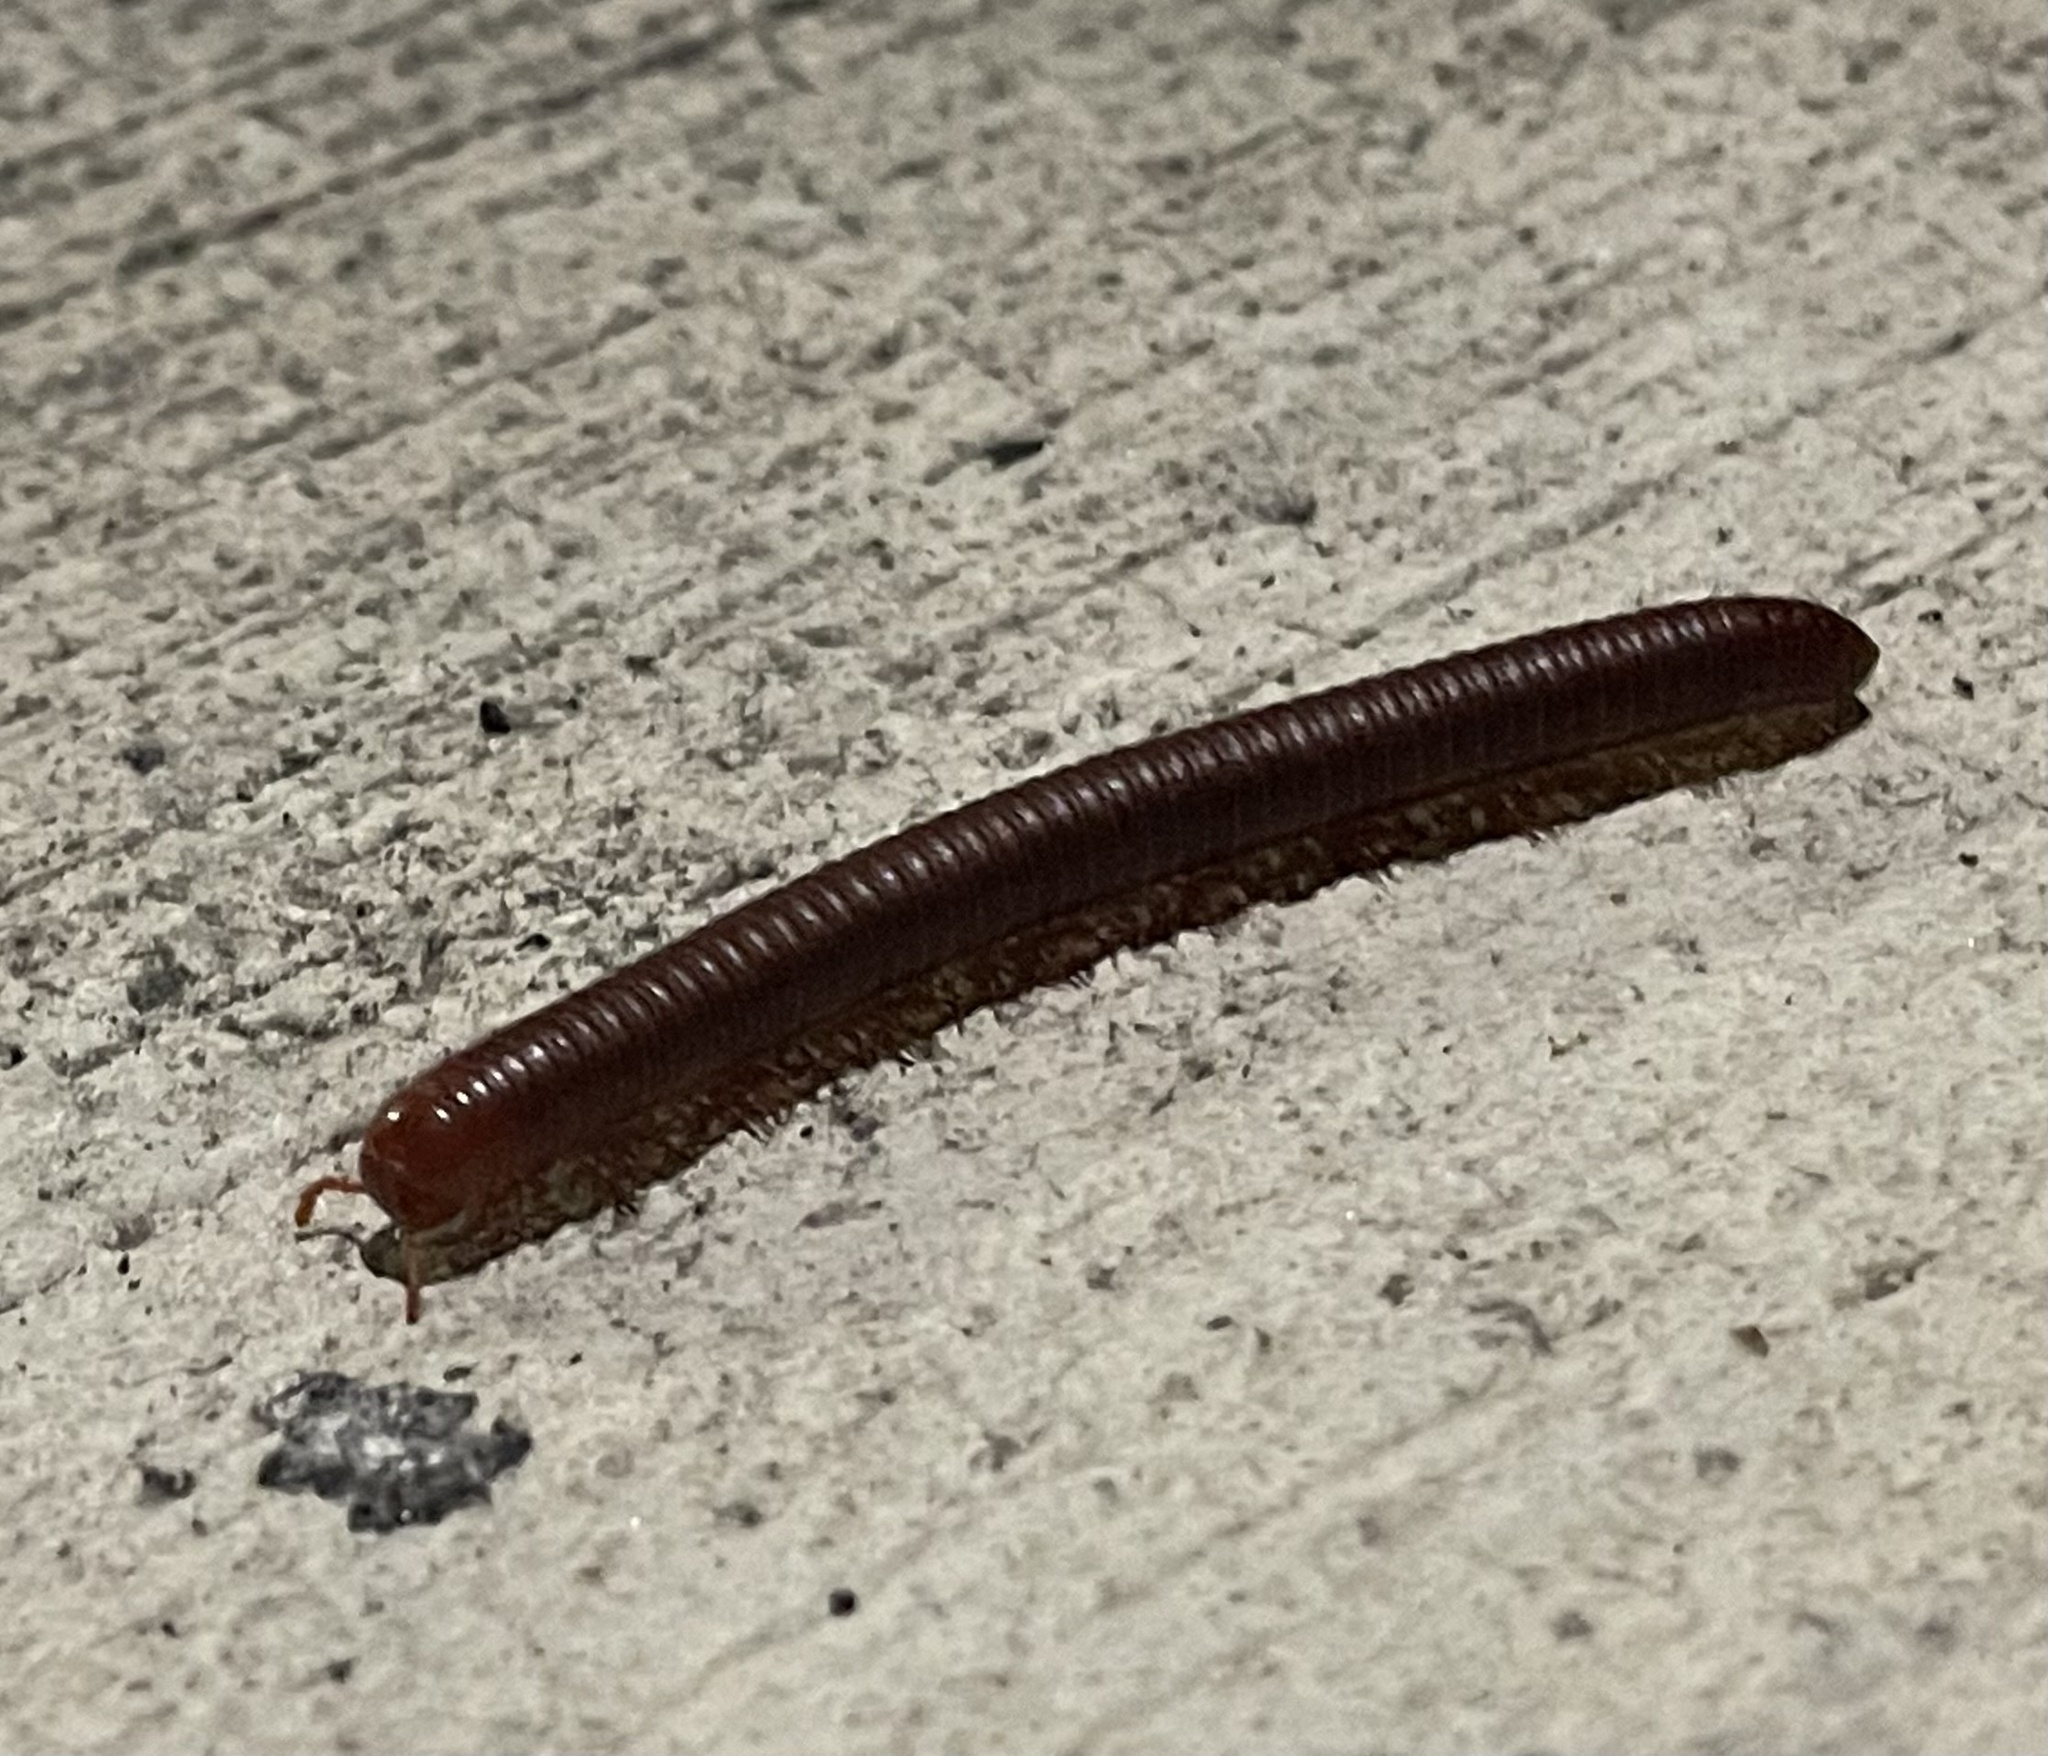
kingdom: Animalia
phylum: Arthropoda
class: Diplopoda
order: Spirobolida
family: Pachybolidae
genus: Trigoniulus
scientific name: Trigoniulus corallinus
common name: Millipede
